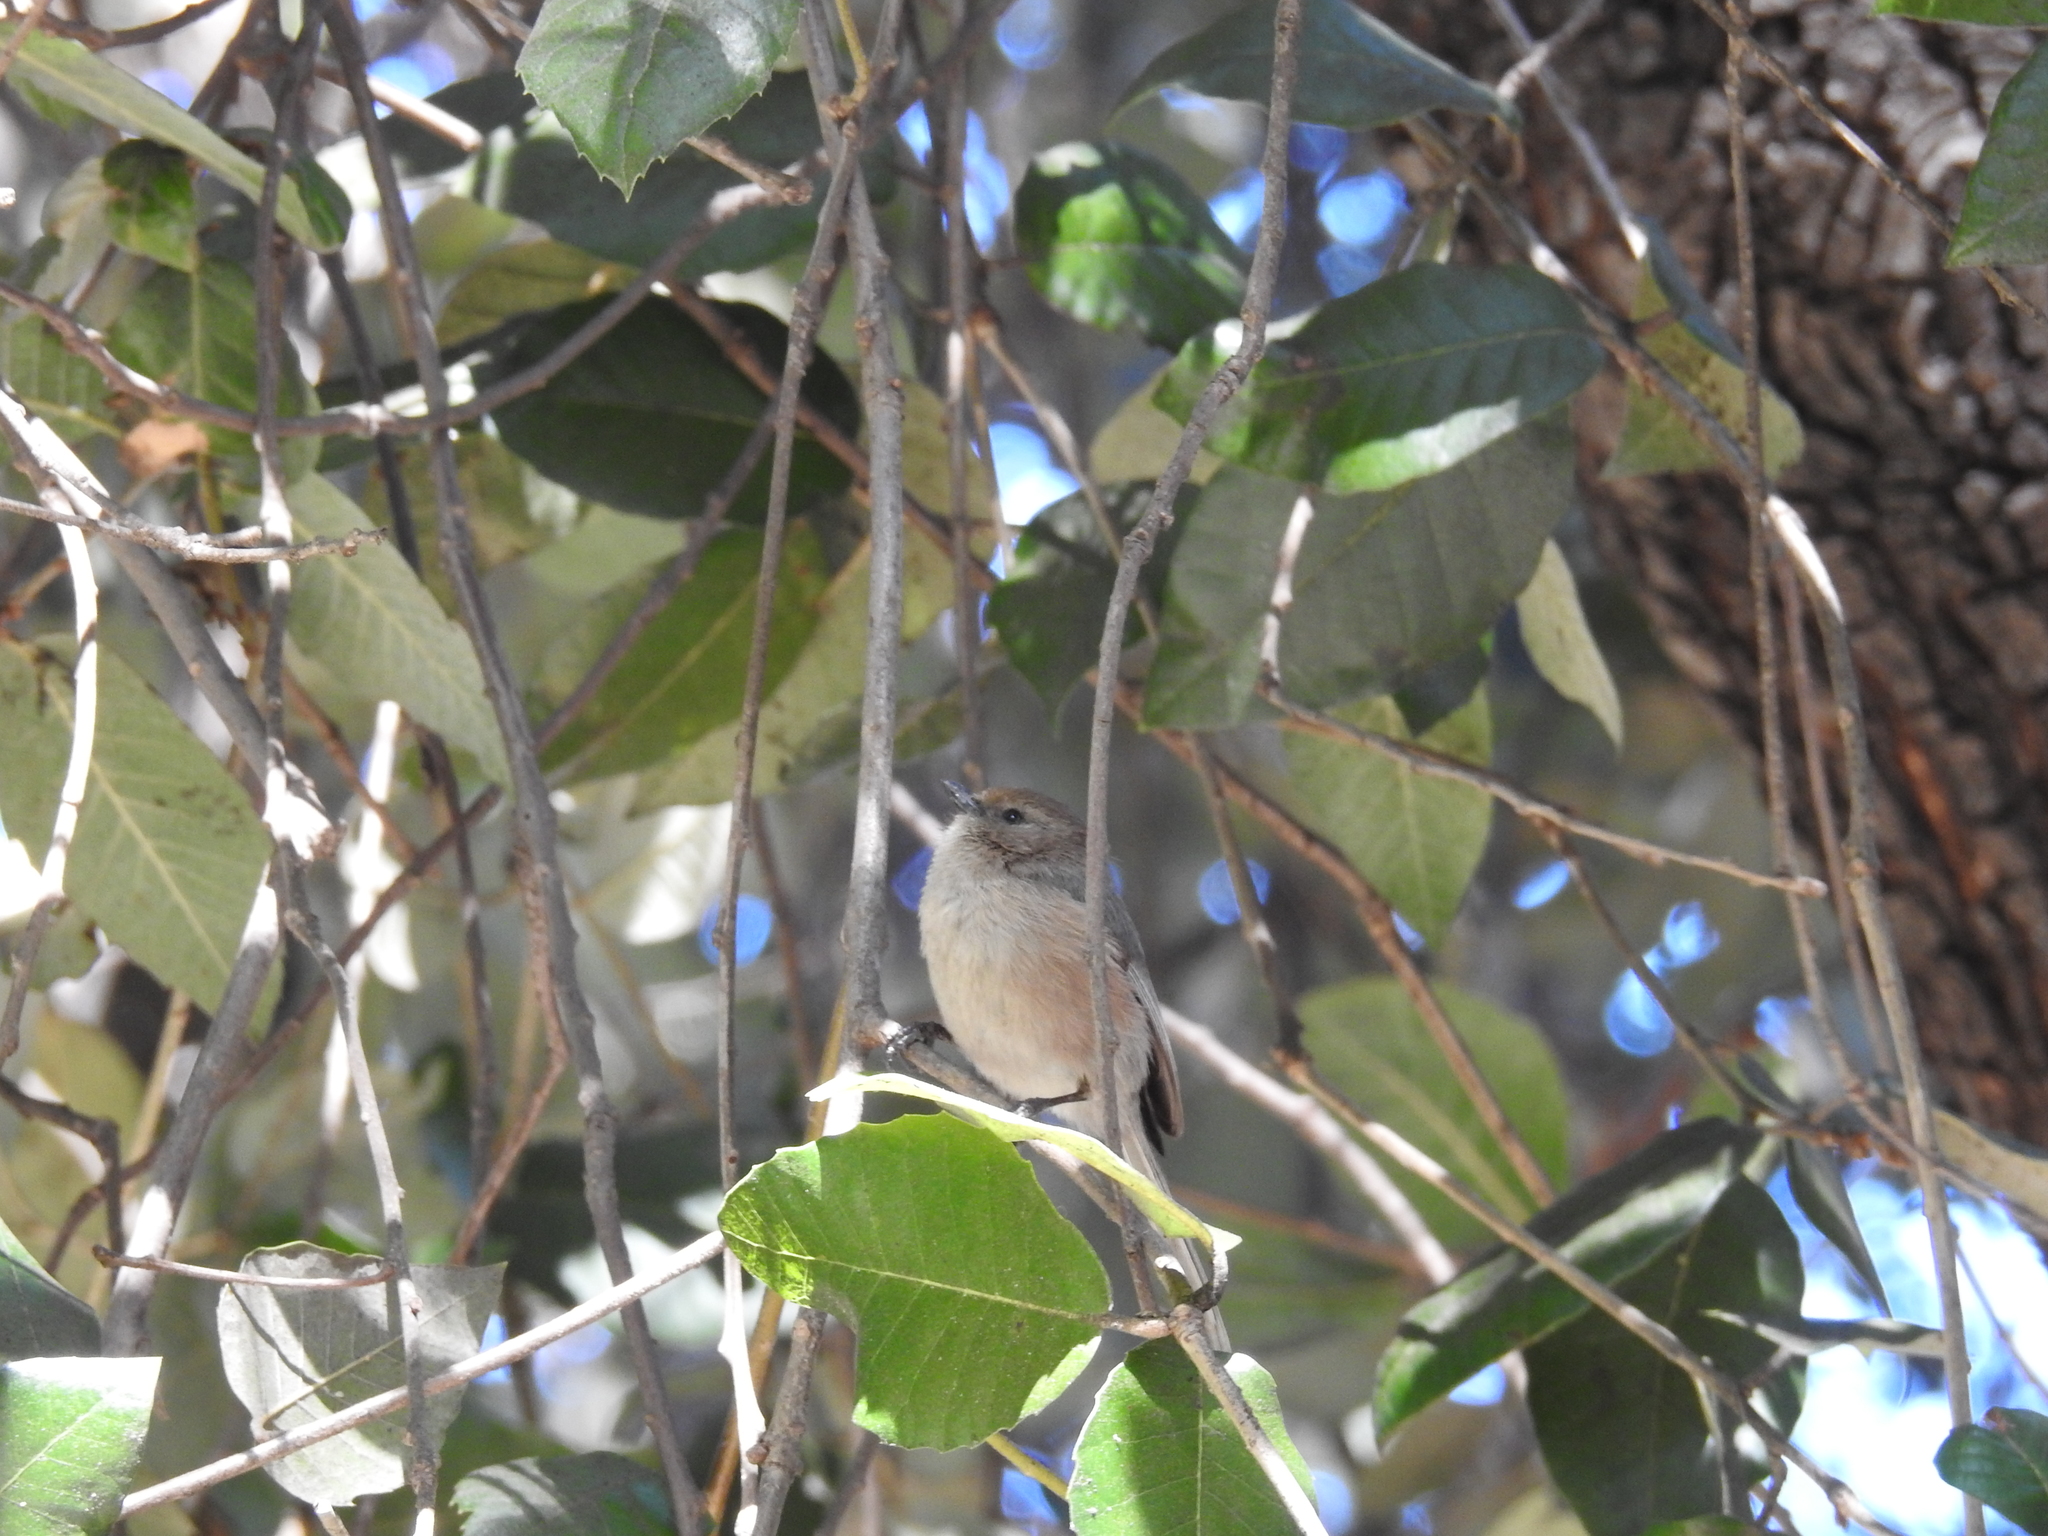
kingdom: Animalia
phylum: Chordata
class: Aves
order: Passeriformes
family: Aegithalidae
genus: Psaltriparus
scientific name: Psaltriparus minimus
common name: American bushtit
